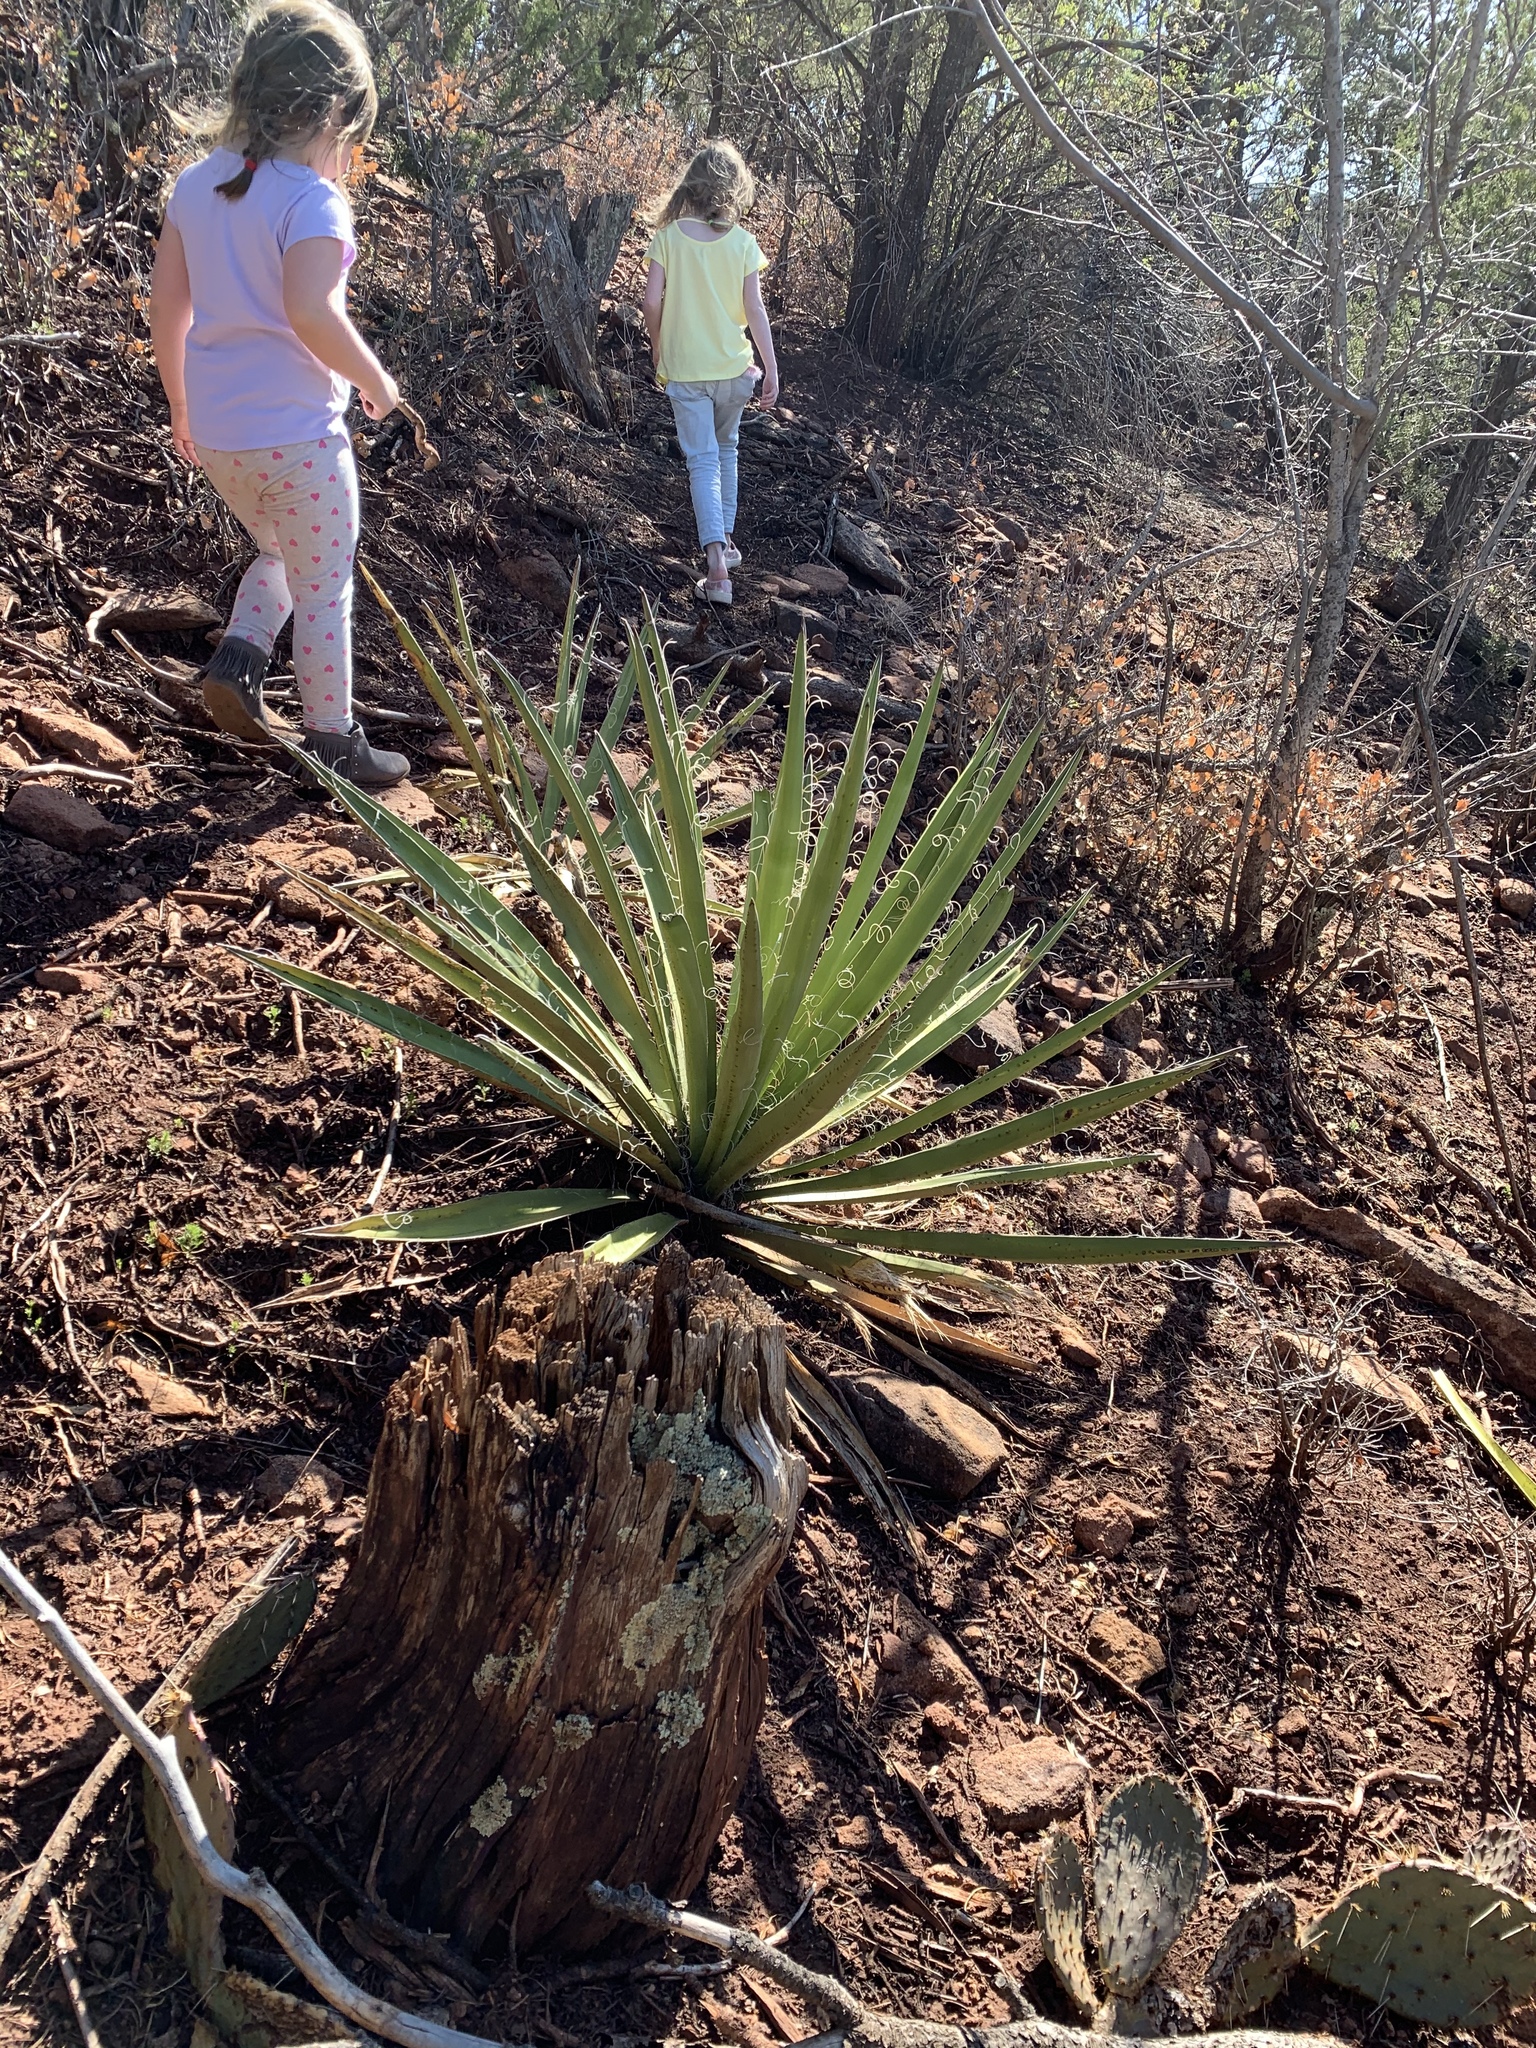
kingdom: Plantae
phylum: Tracheophyta
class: Liliopsida
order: Asparagales
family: Asparagaceae
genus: Yucca
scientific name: Yucca baccata
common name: Banana yucca
